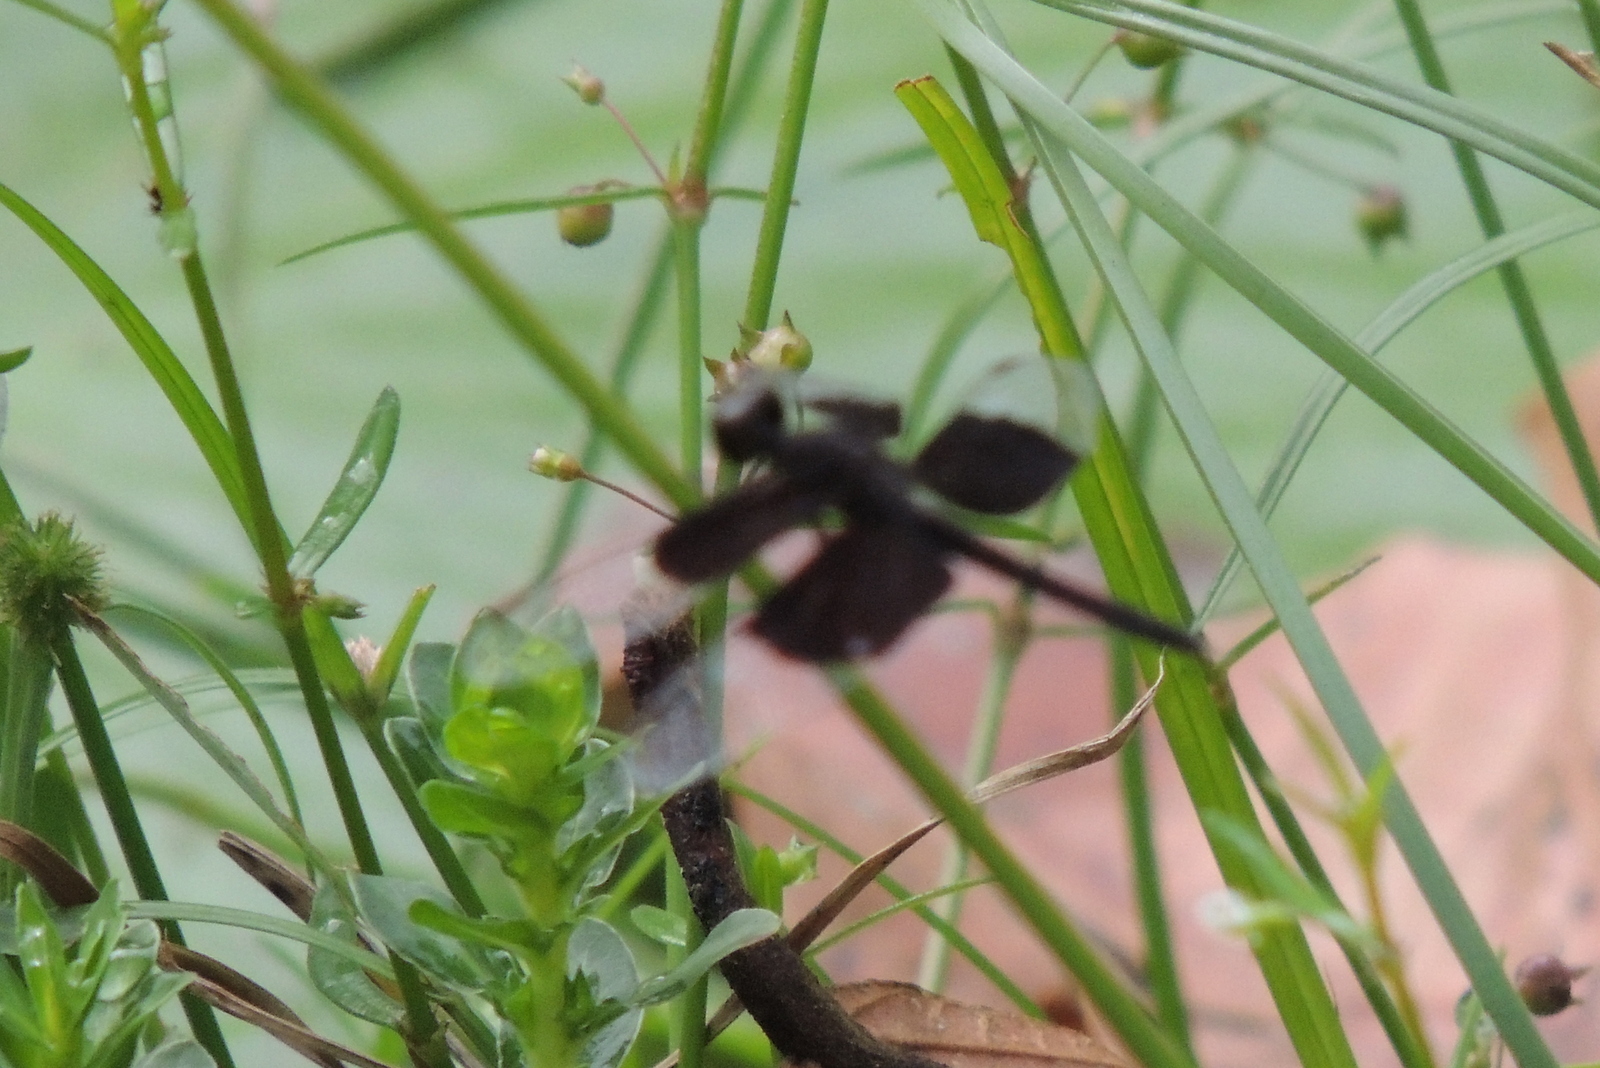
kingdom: Animalia
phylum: Arthropoda
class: Insecta
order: Odonata
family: Libellulidae
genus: Neurothemis
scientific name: Neurothemis tullia
